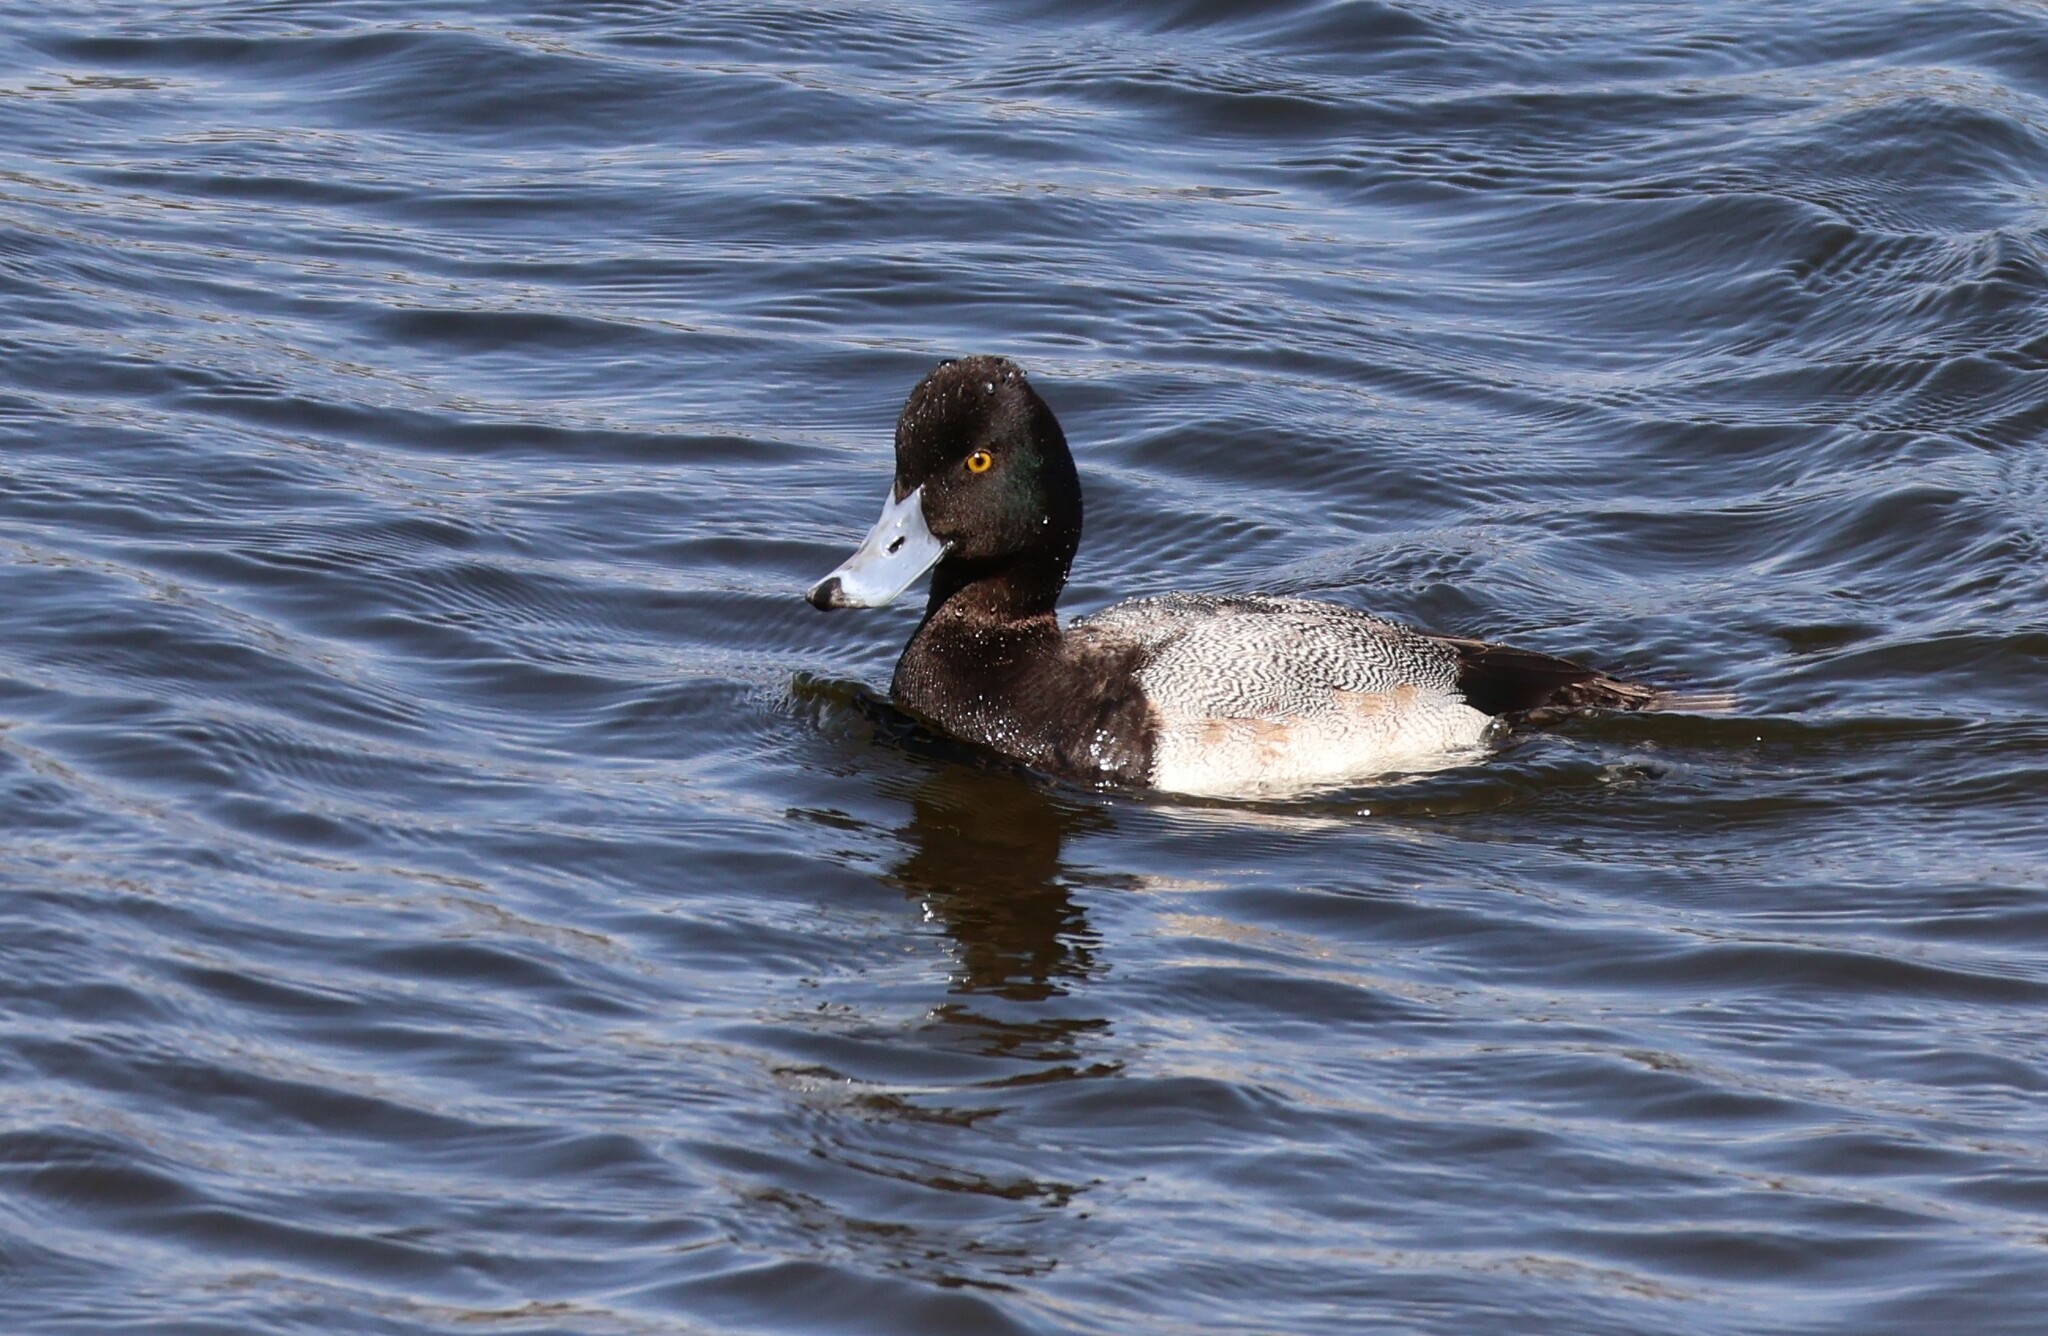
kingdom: Animalia
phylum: Chordata
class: Aves
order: Anseriformes
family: Anatidae
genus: Aythya
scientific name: Aythya affinis
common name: Lesser scaup
